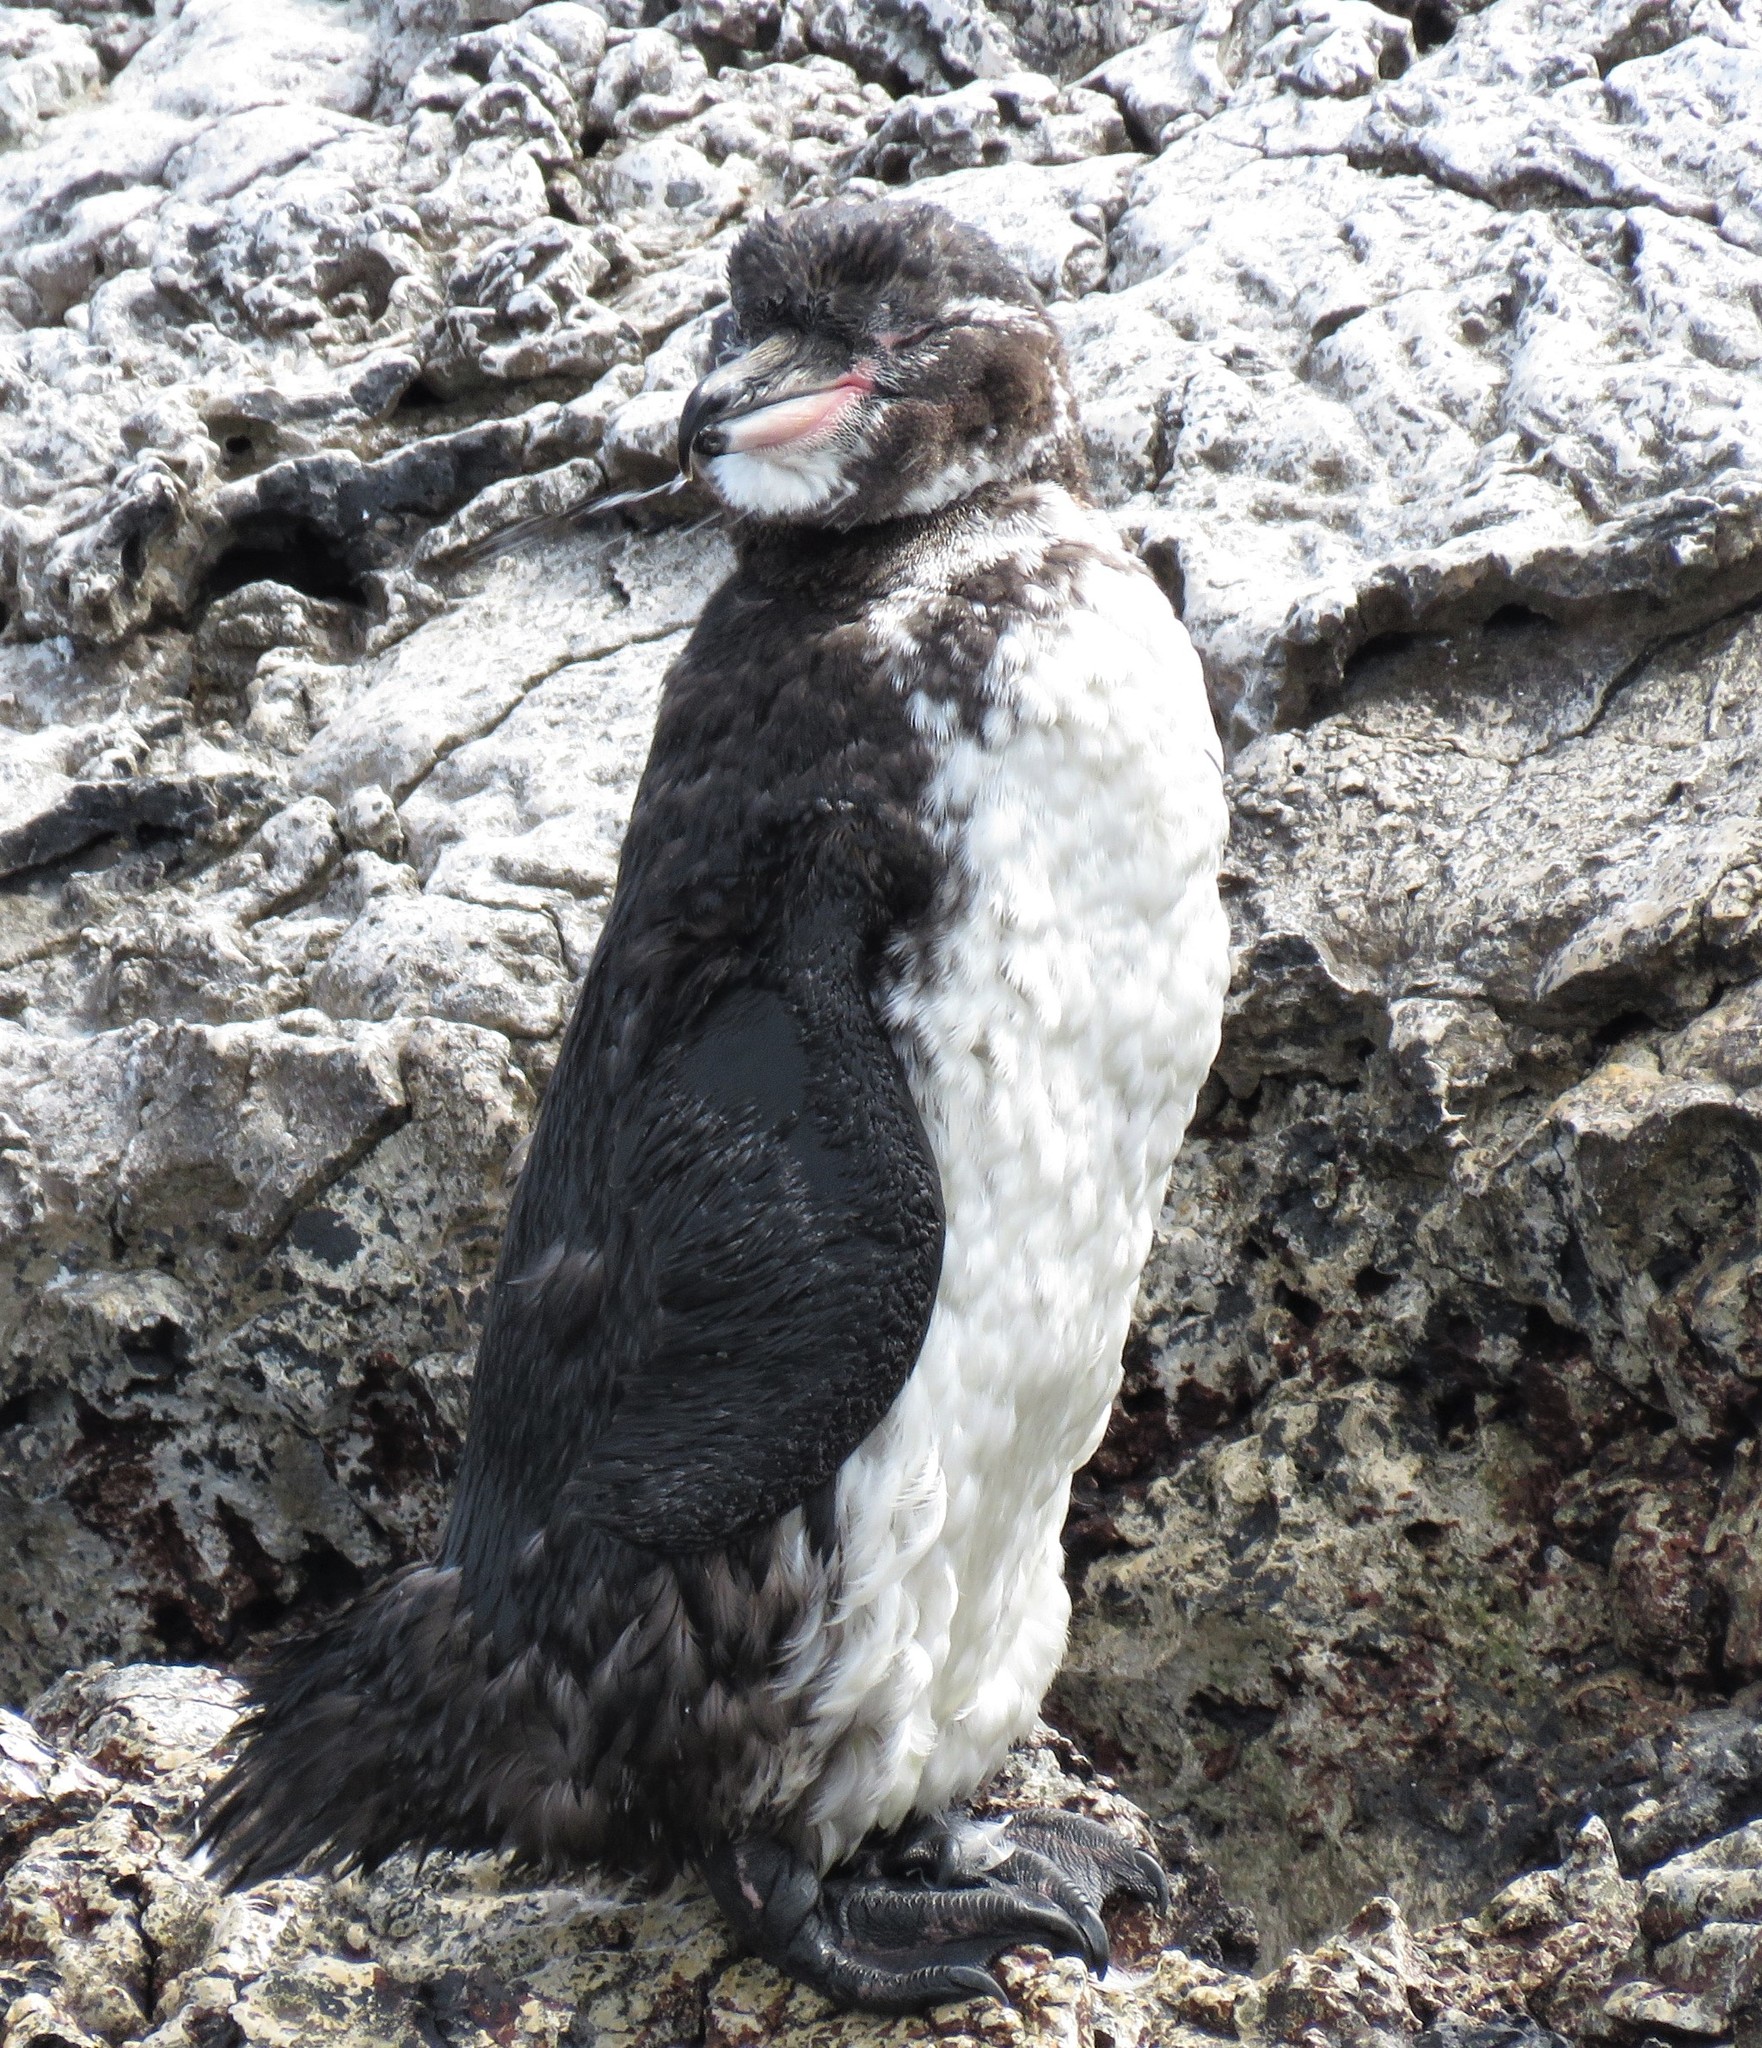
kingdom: Animalia
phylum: Chordata
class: Aves
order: Sphenisciformes
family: Spheniscidae
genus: Spheniscus
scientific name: Spheniscus mendiculus
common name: Galapagos penguin
